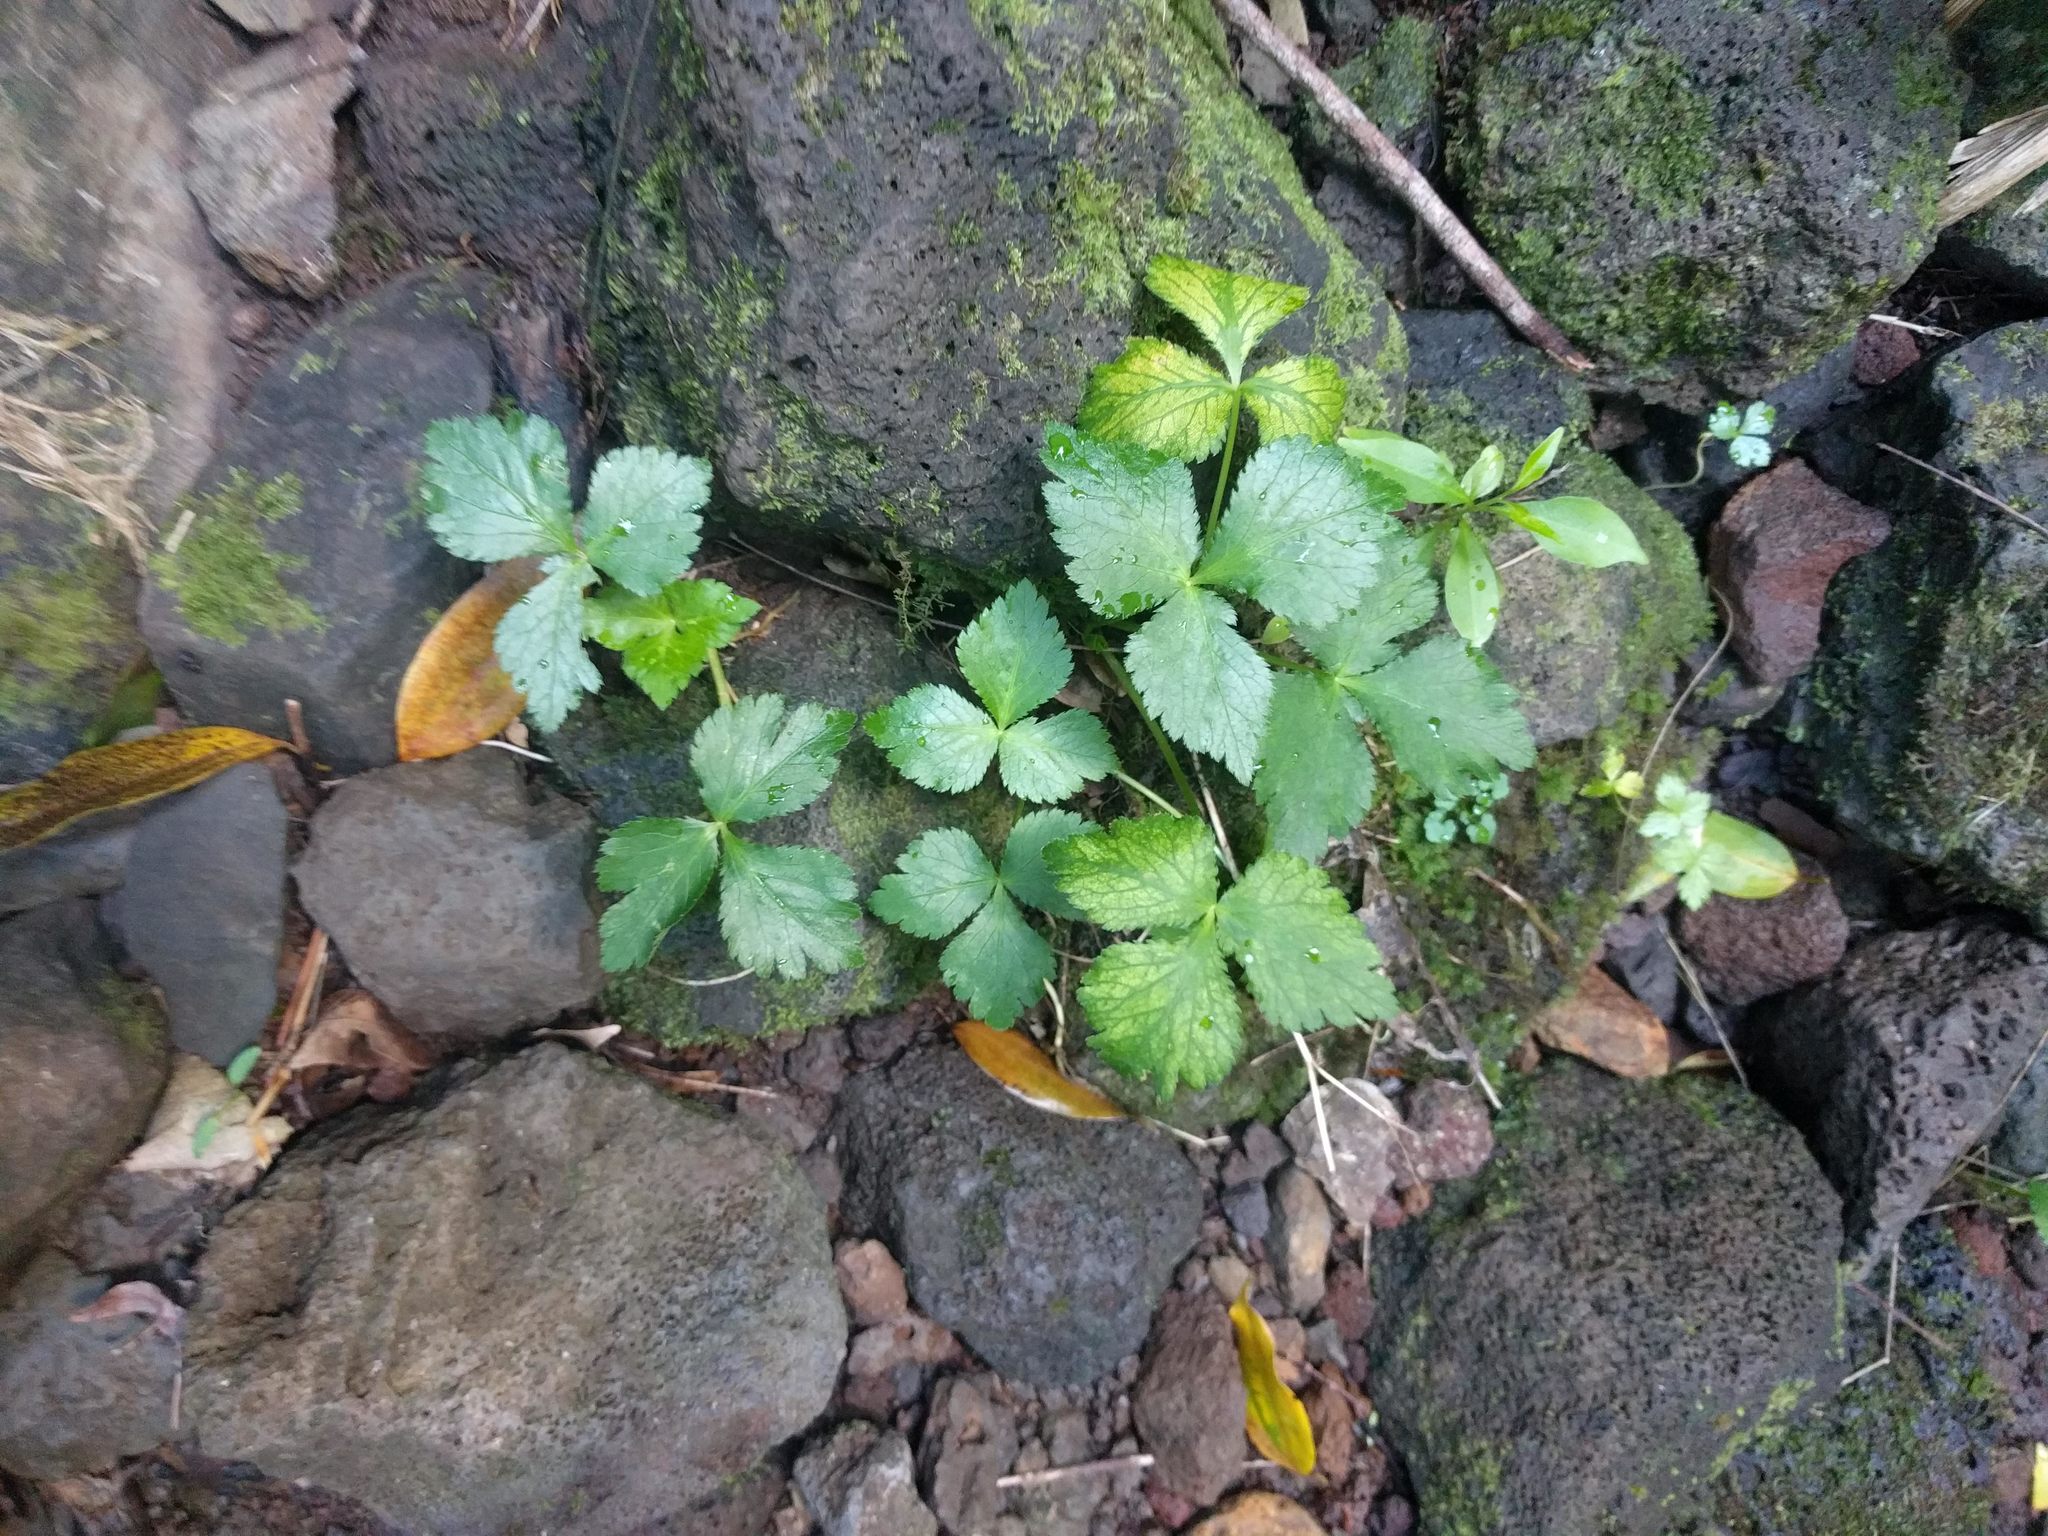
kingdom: Plantae
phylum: Tracheophyta
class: Magnoliopsida
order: Apiales
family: Apiaceae
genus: Cryptotaenia
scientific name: Cryptotaenia canadensis
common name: Honewort
